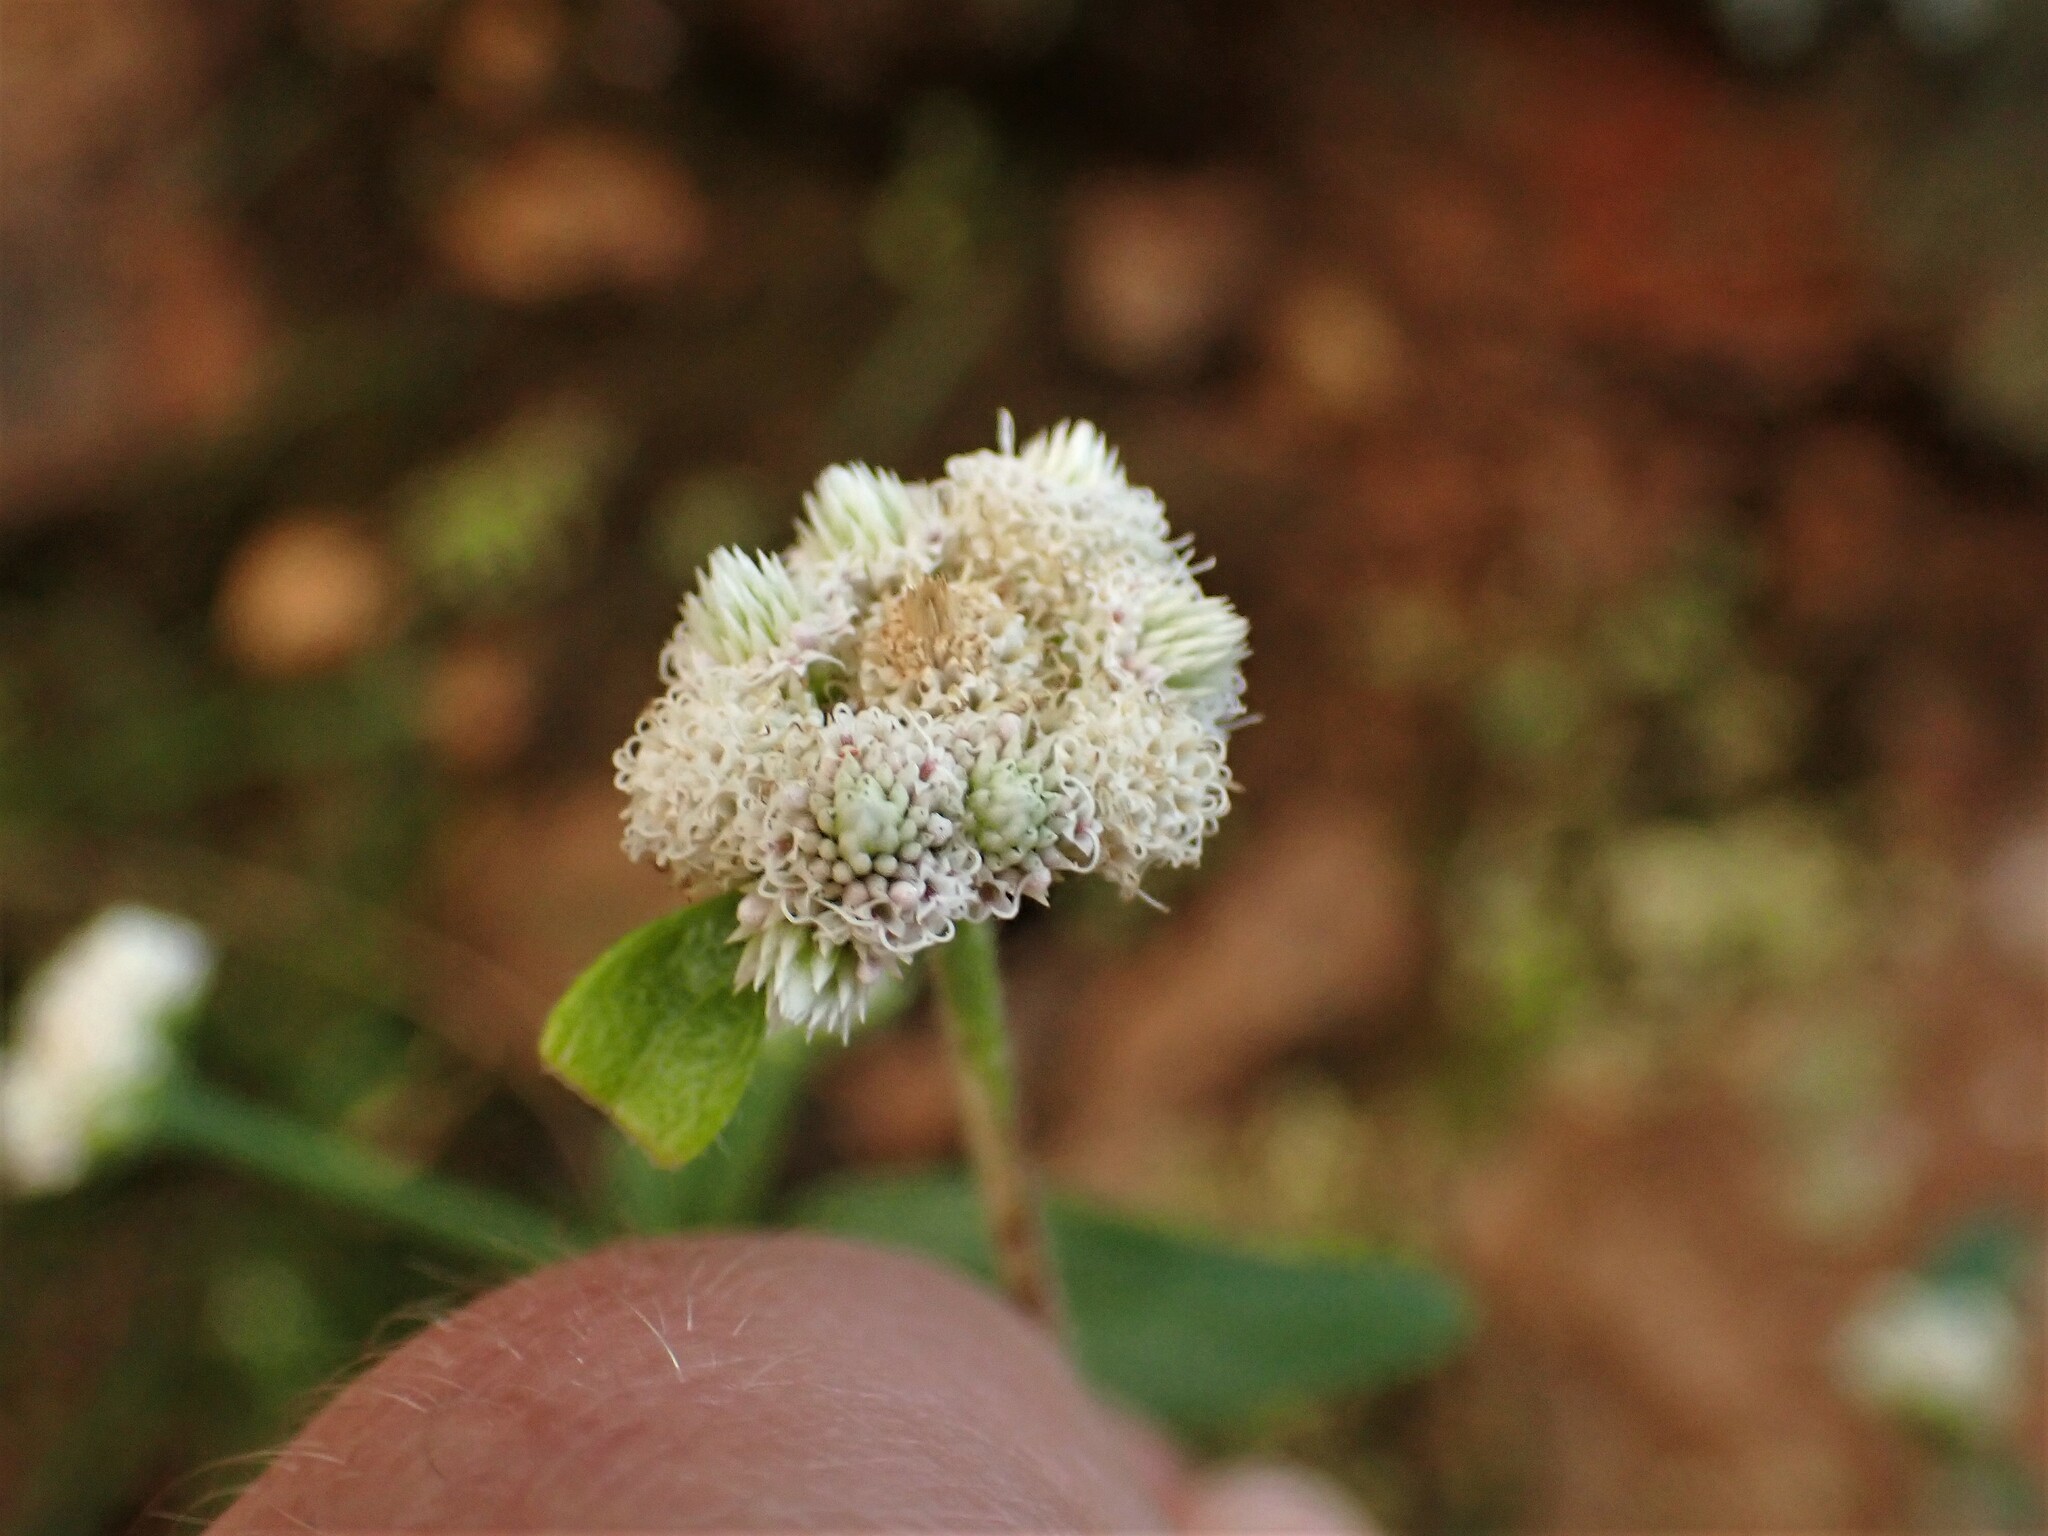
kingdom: Plantae
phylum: Tracheophyta
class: Magnoliopsida
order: Asterales
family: Asteraceae
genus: Isocarpha
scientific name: Isocarpha oppositifolia
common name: Rio grande pearlhead
